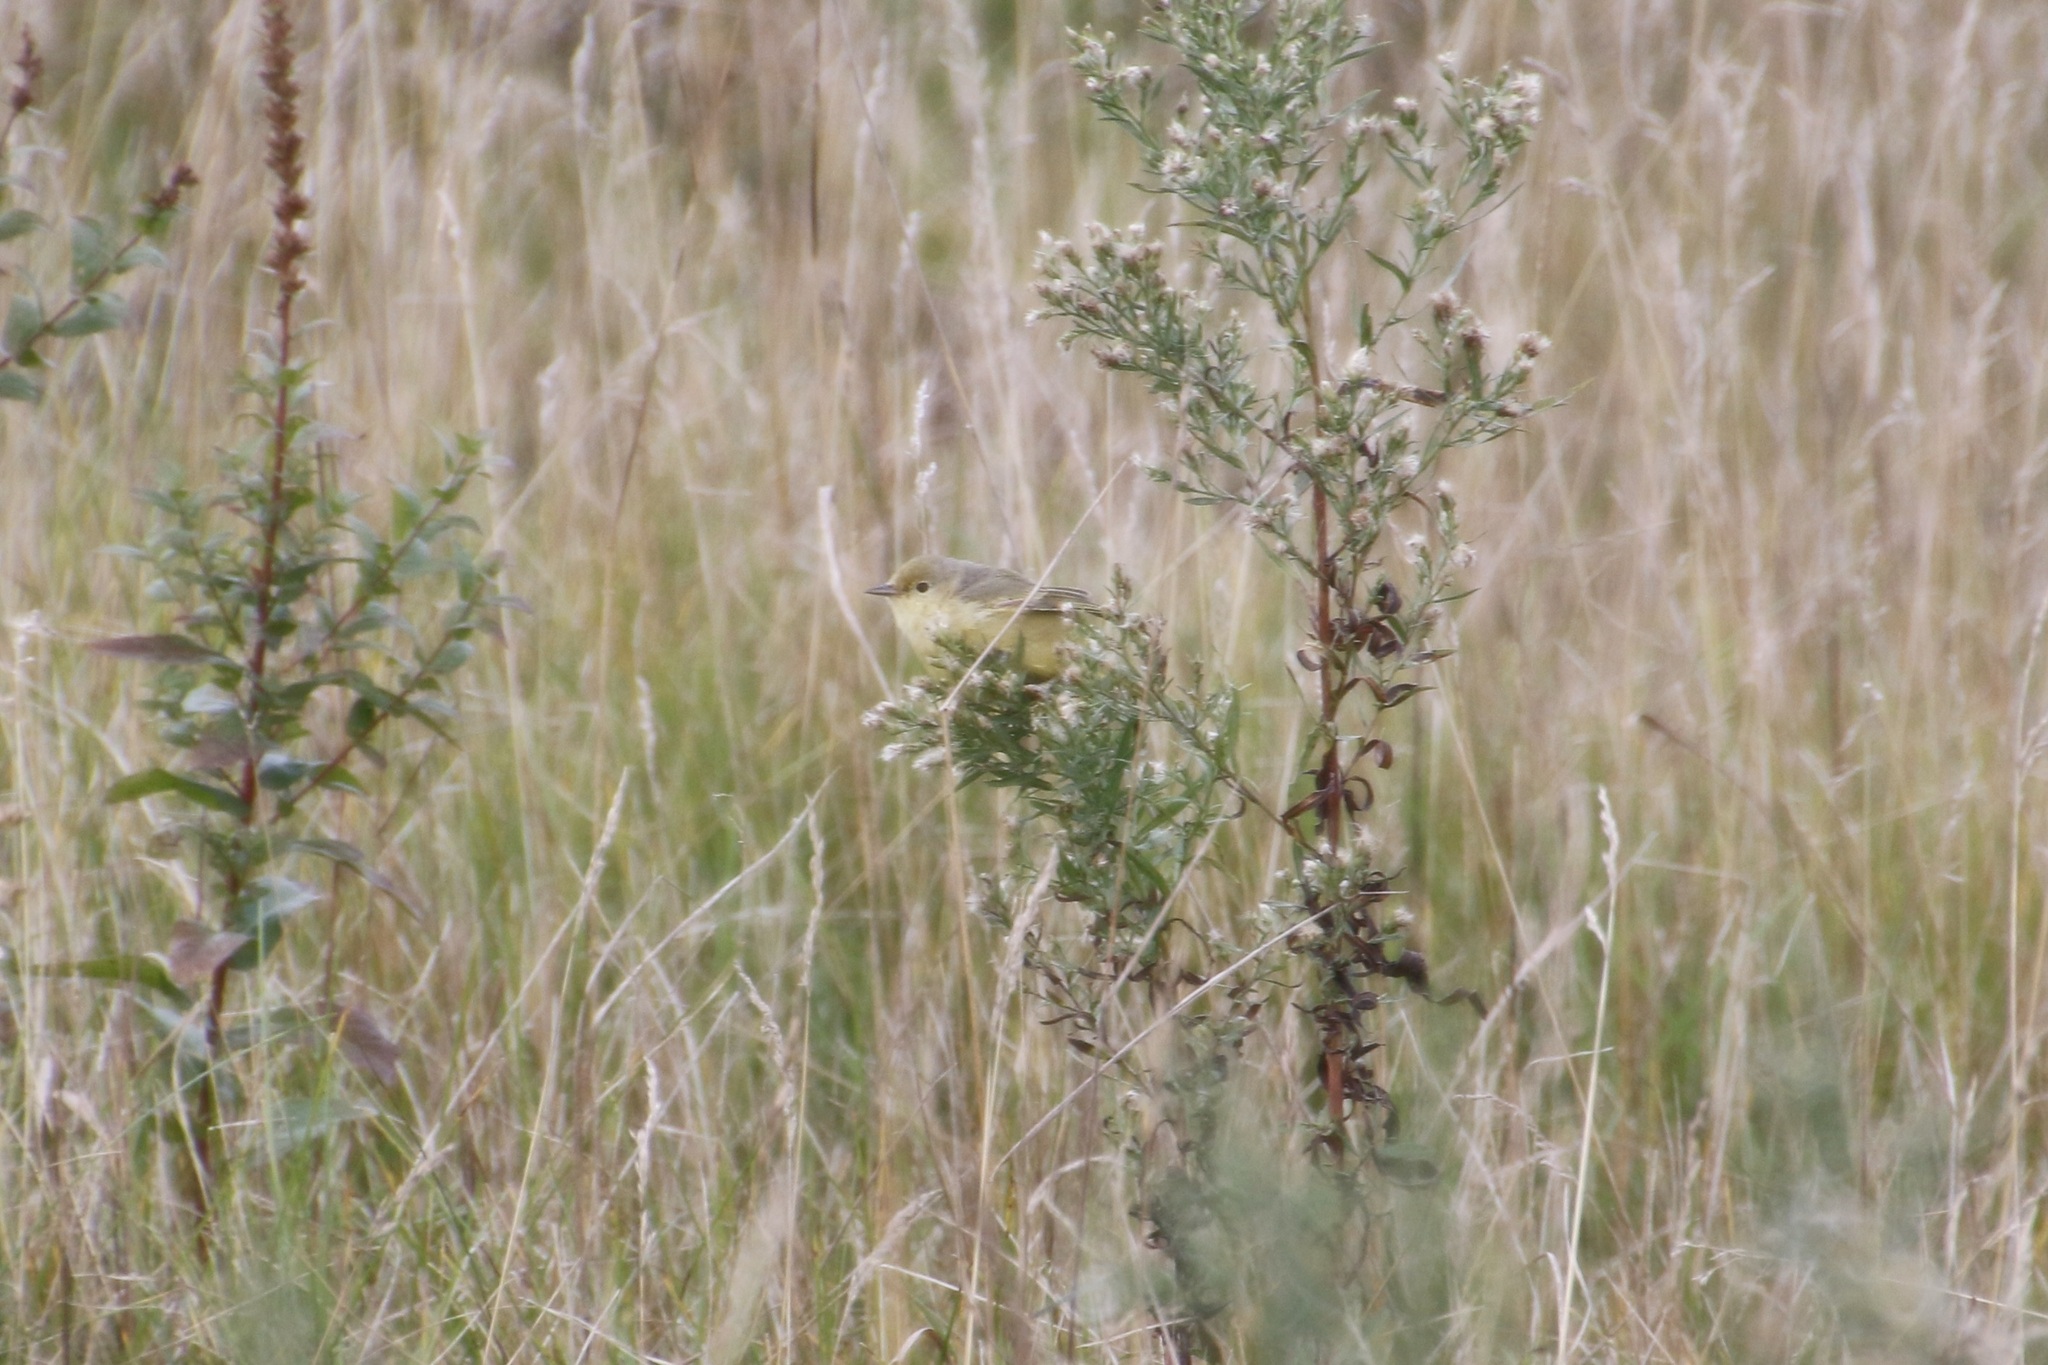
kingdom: Animalia
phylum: Chordata
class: Aves
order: Passeriformes
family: Parulidae
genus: Setophaga
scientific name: Setophaga petechia
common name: Yellow warbler
